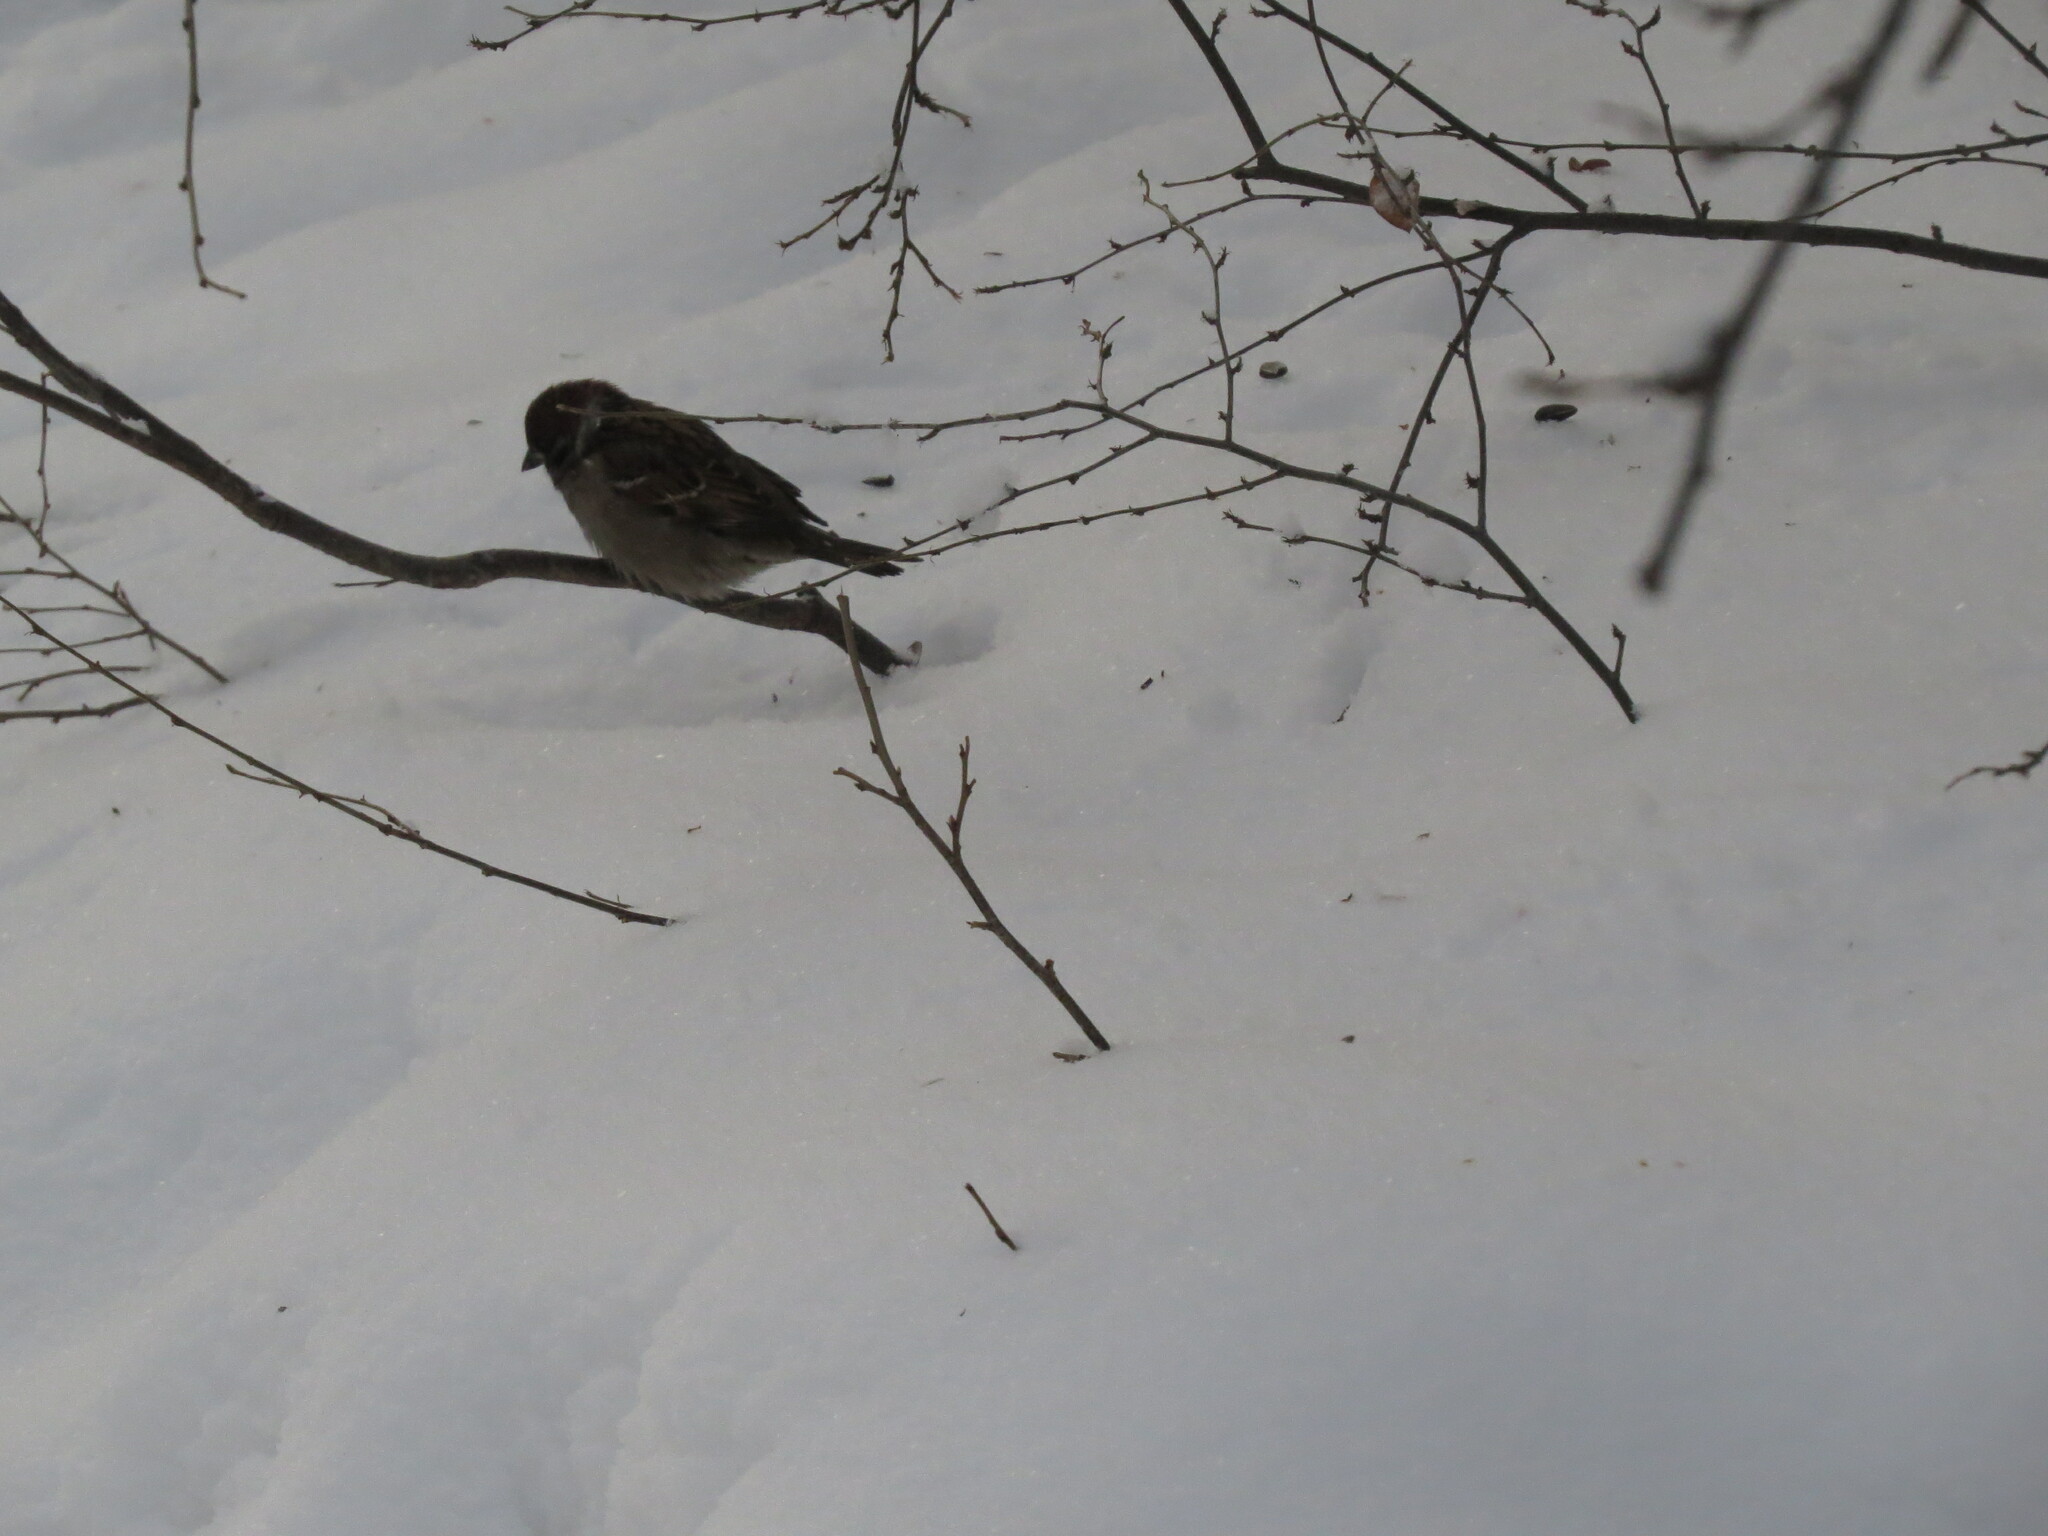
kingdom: Animalia
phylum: Chordata
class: Aves
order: Passeriformes
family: Passeridae
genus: Passer
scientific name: Passer montanus
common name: Eurasian tree sparrow
